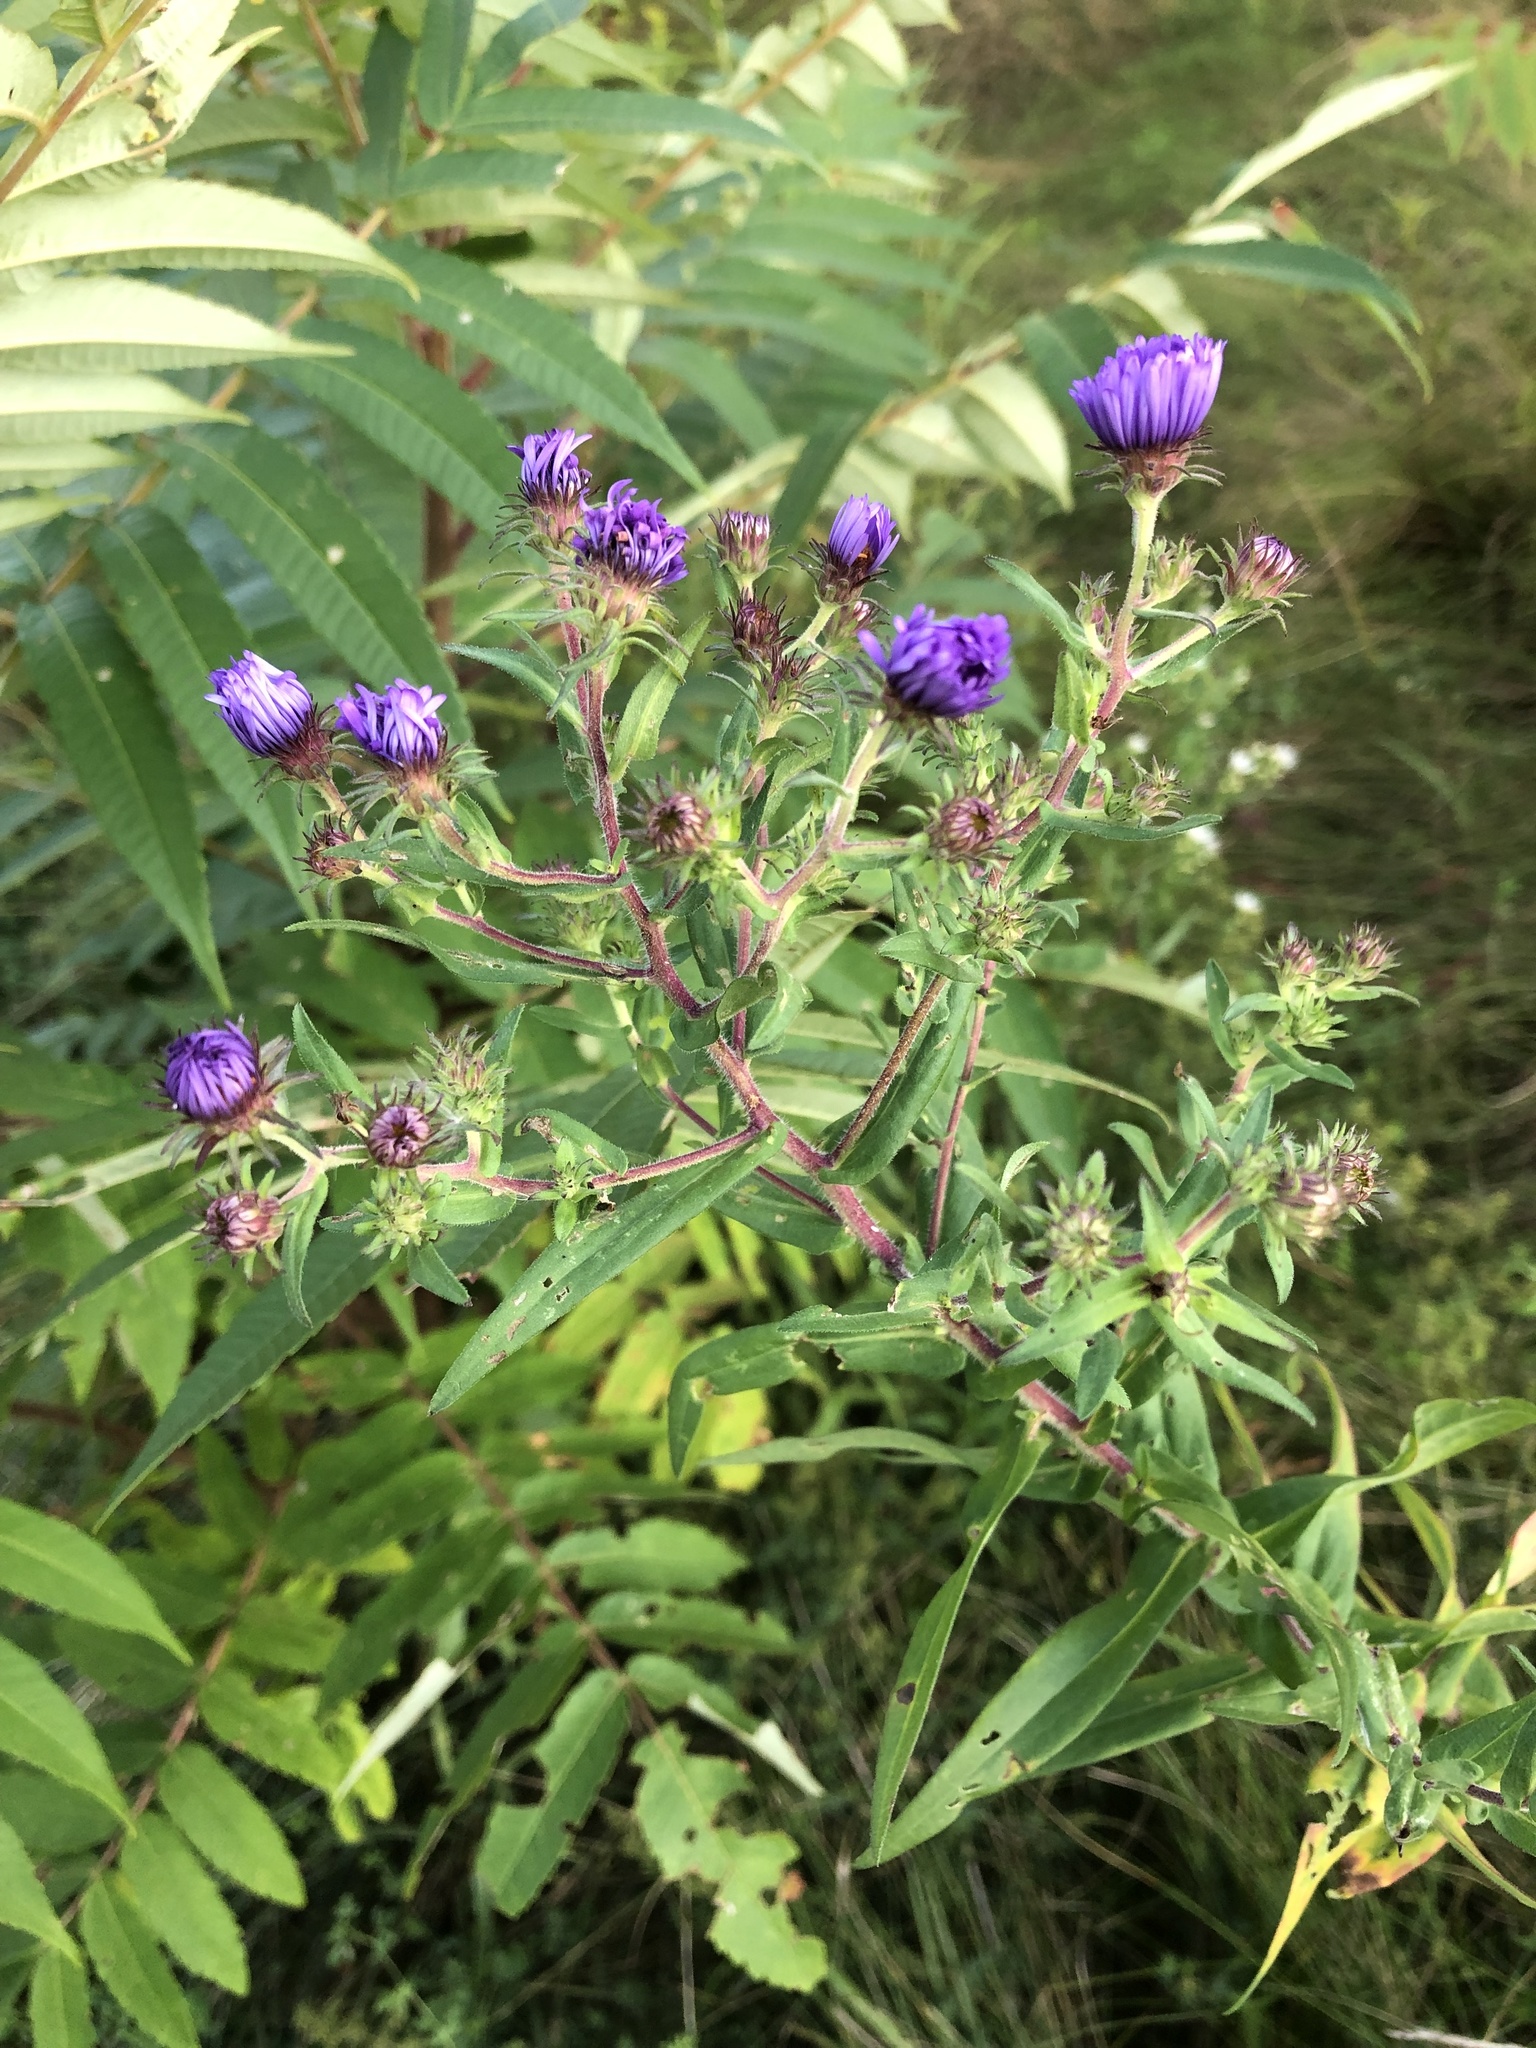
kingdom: Plantae
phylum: Tracheophyta
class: Magnoliopsida
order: Asterales
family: Asteraceae
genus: Symphyotrichum
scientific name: Symphyotrichum novae-angliae
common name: Michaelmas daisy
